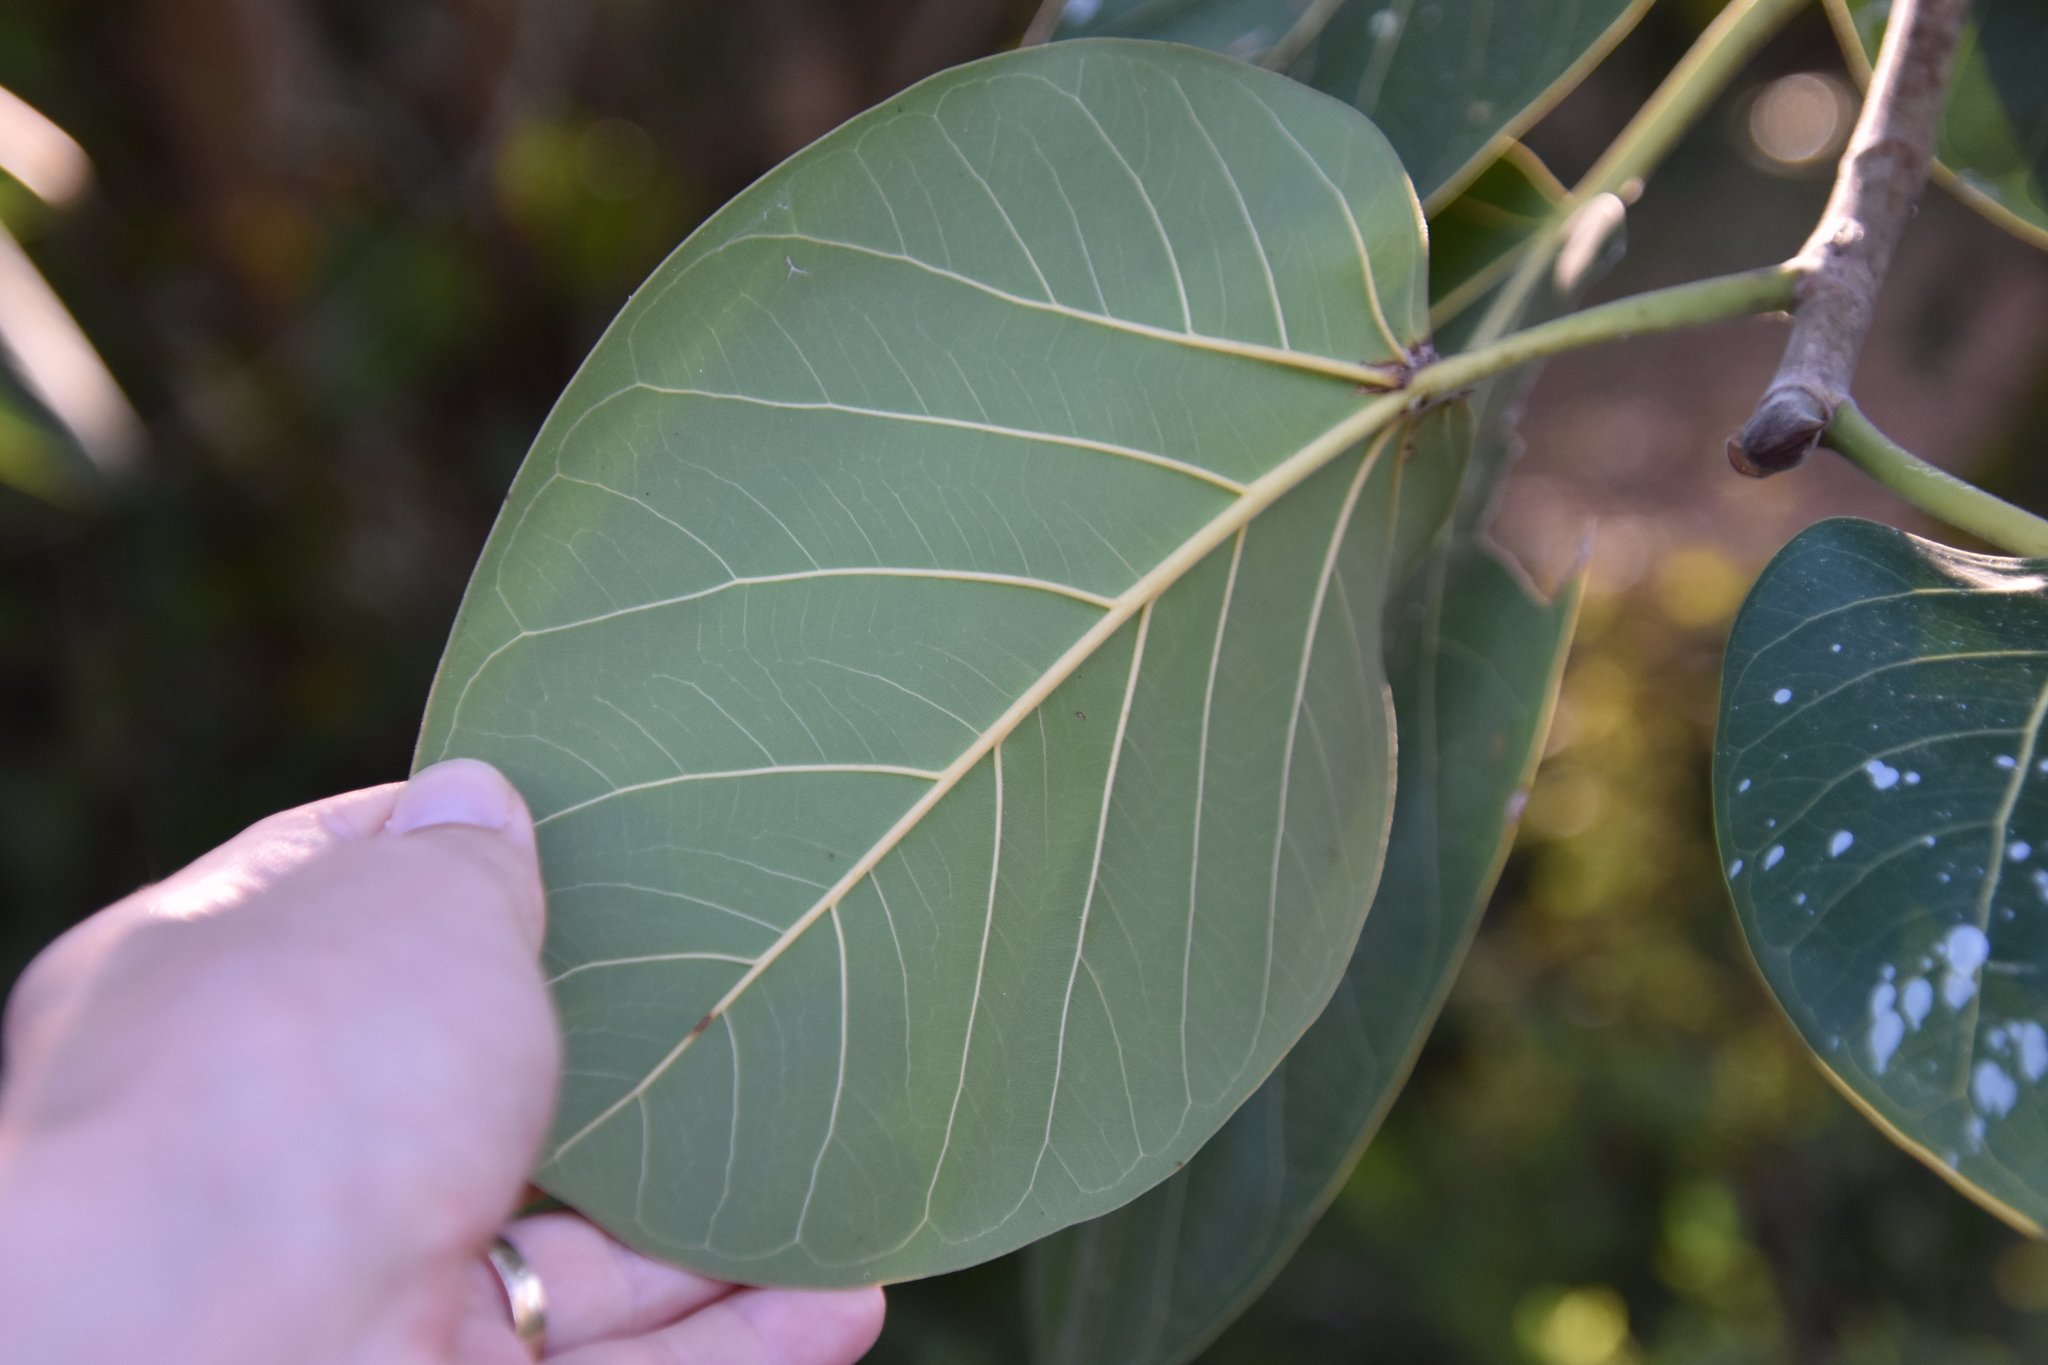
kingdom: Plantae
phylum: Tracheophyta
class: Magnoliopsida
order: Rosales
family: Moraceae
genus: Ficus
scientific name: Ficus altissima
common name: Council tree
